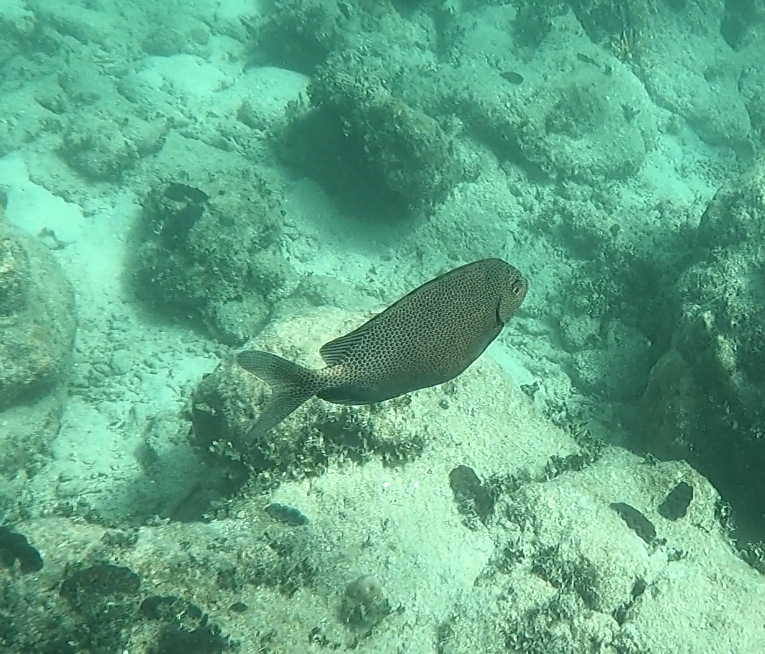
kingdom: Animalia
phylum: Chordata
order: Perciformes
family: Siganidae
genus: Siganus
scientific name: Siganus punctatus
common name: Gold-spotted rabbitfish
